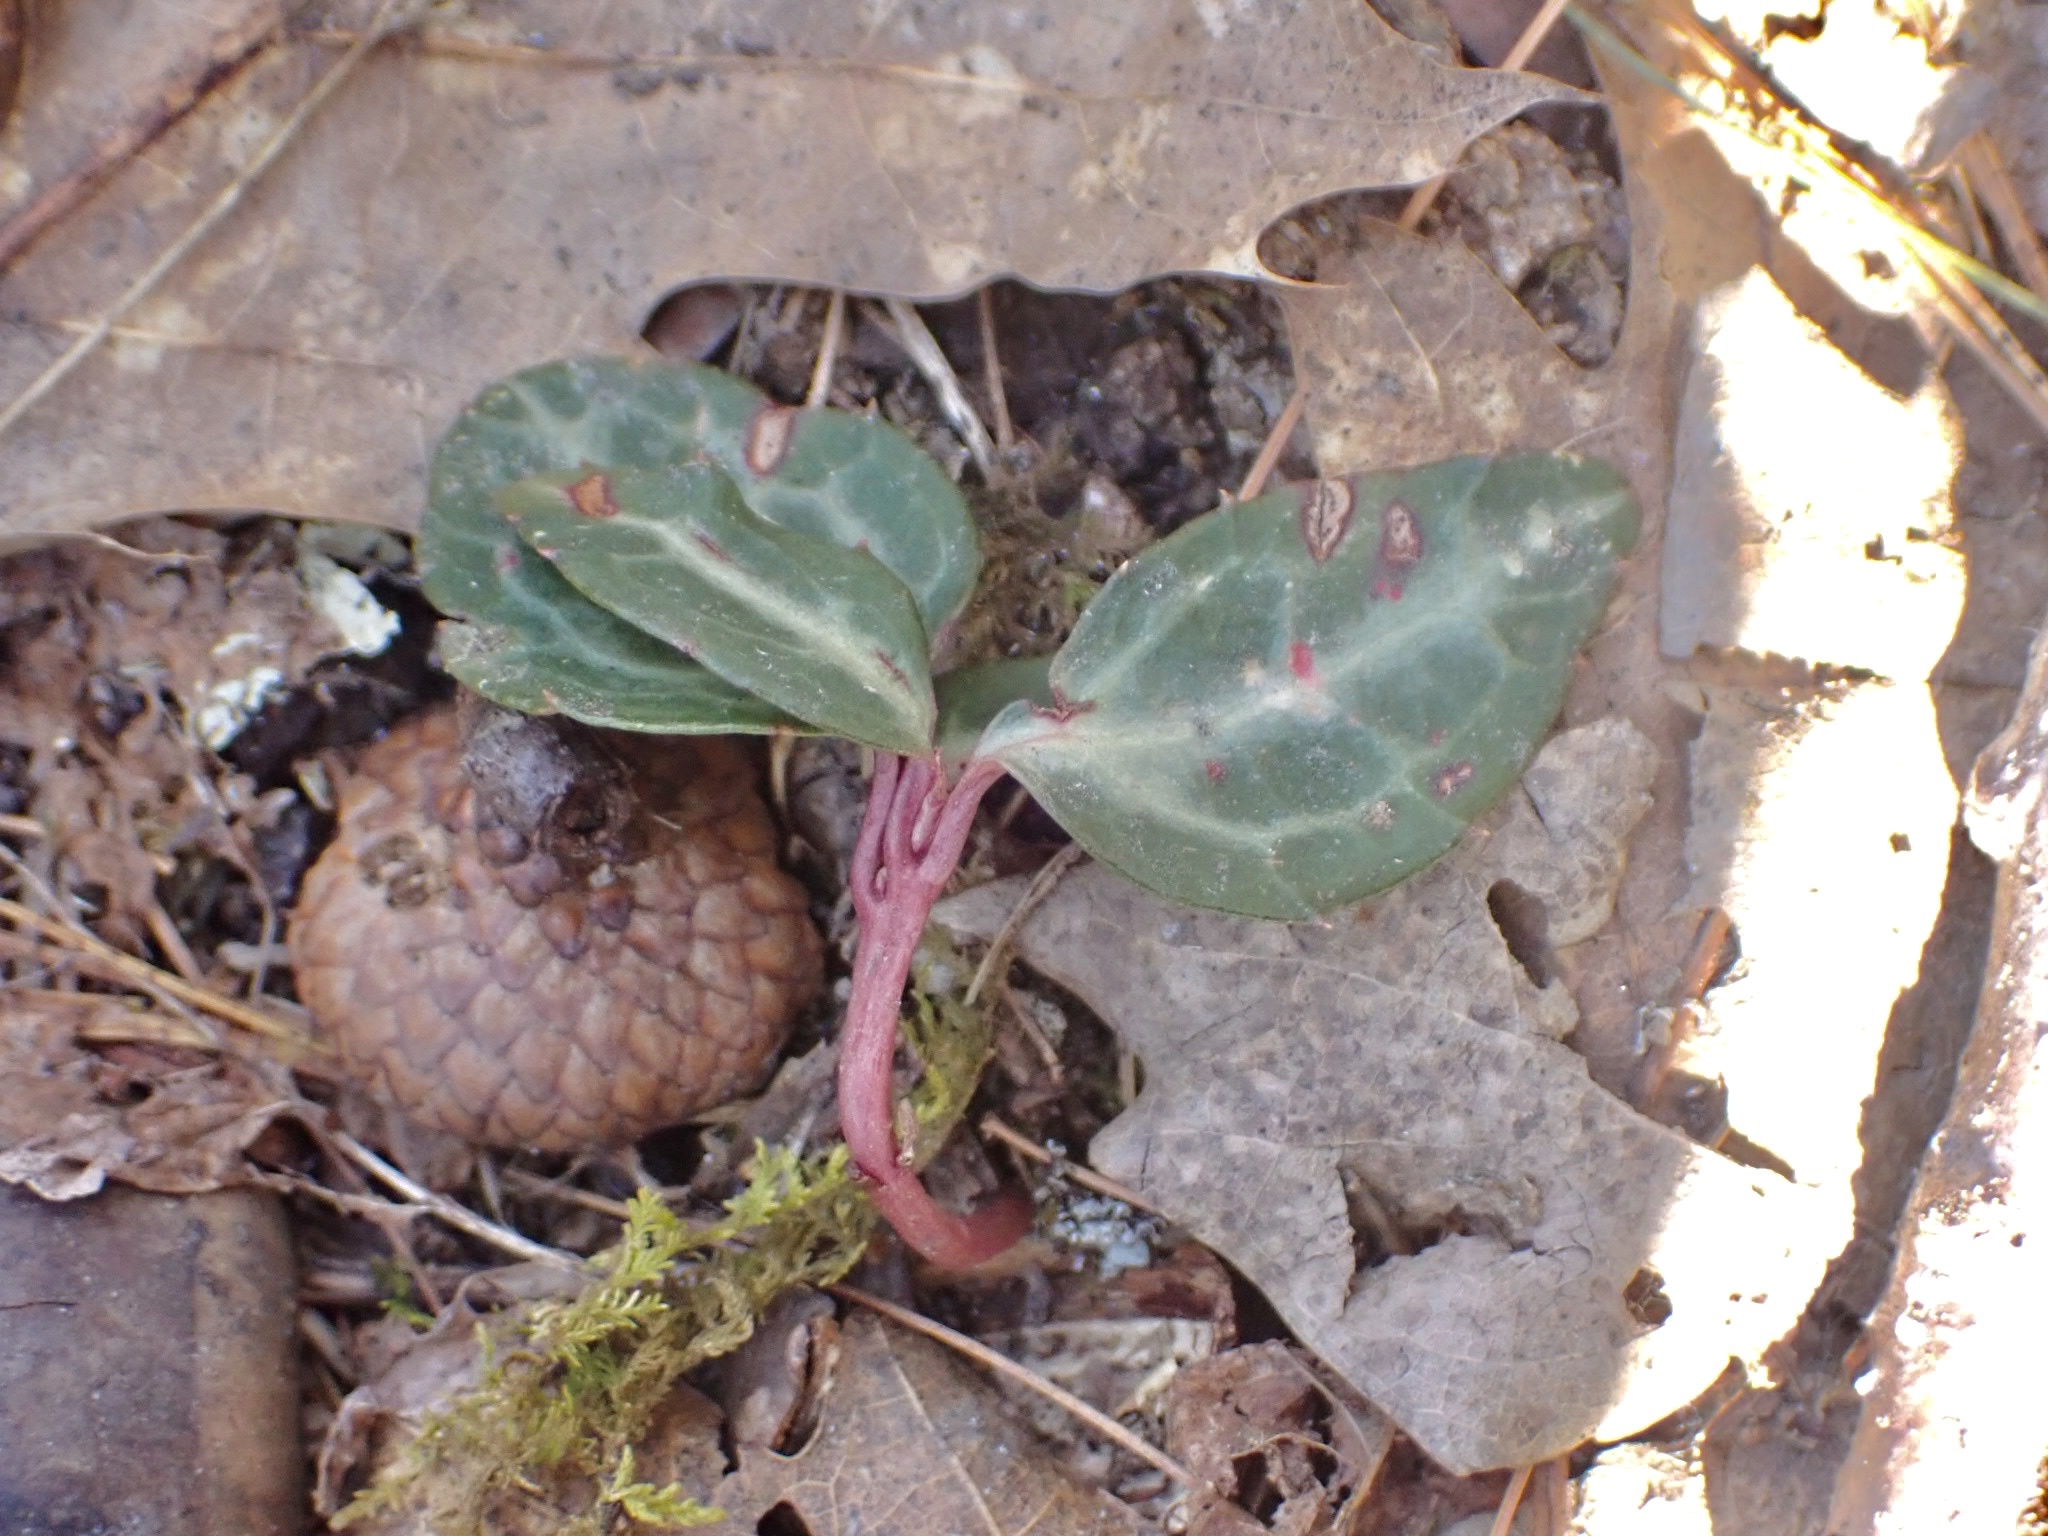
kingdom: Plantae
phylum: Tracheophyta
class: Magnoliopsida
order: Ericales
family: Ericaceae
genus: Chimaphila
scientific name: Chimaphila maculata
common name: Spotted pipsissewa
